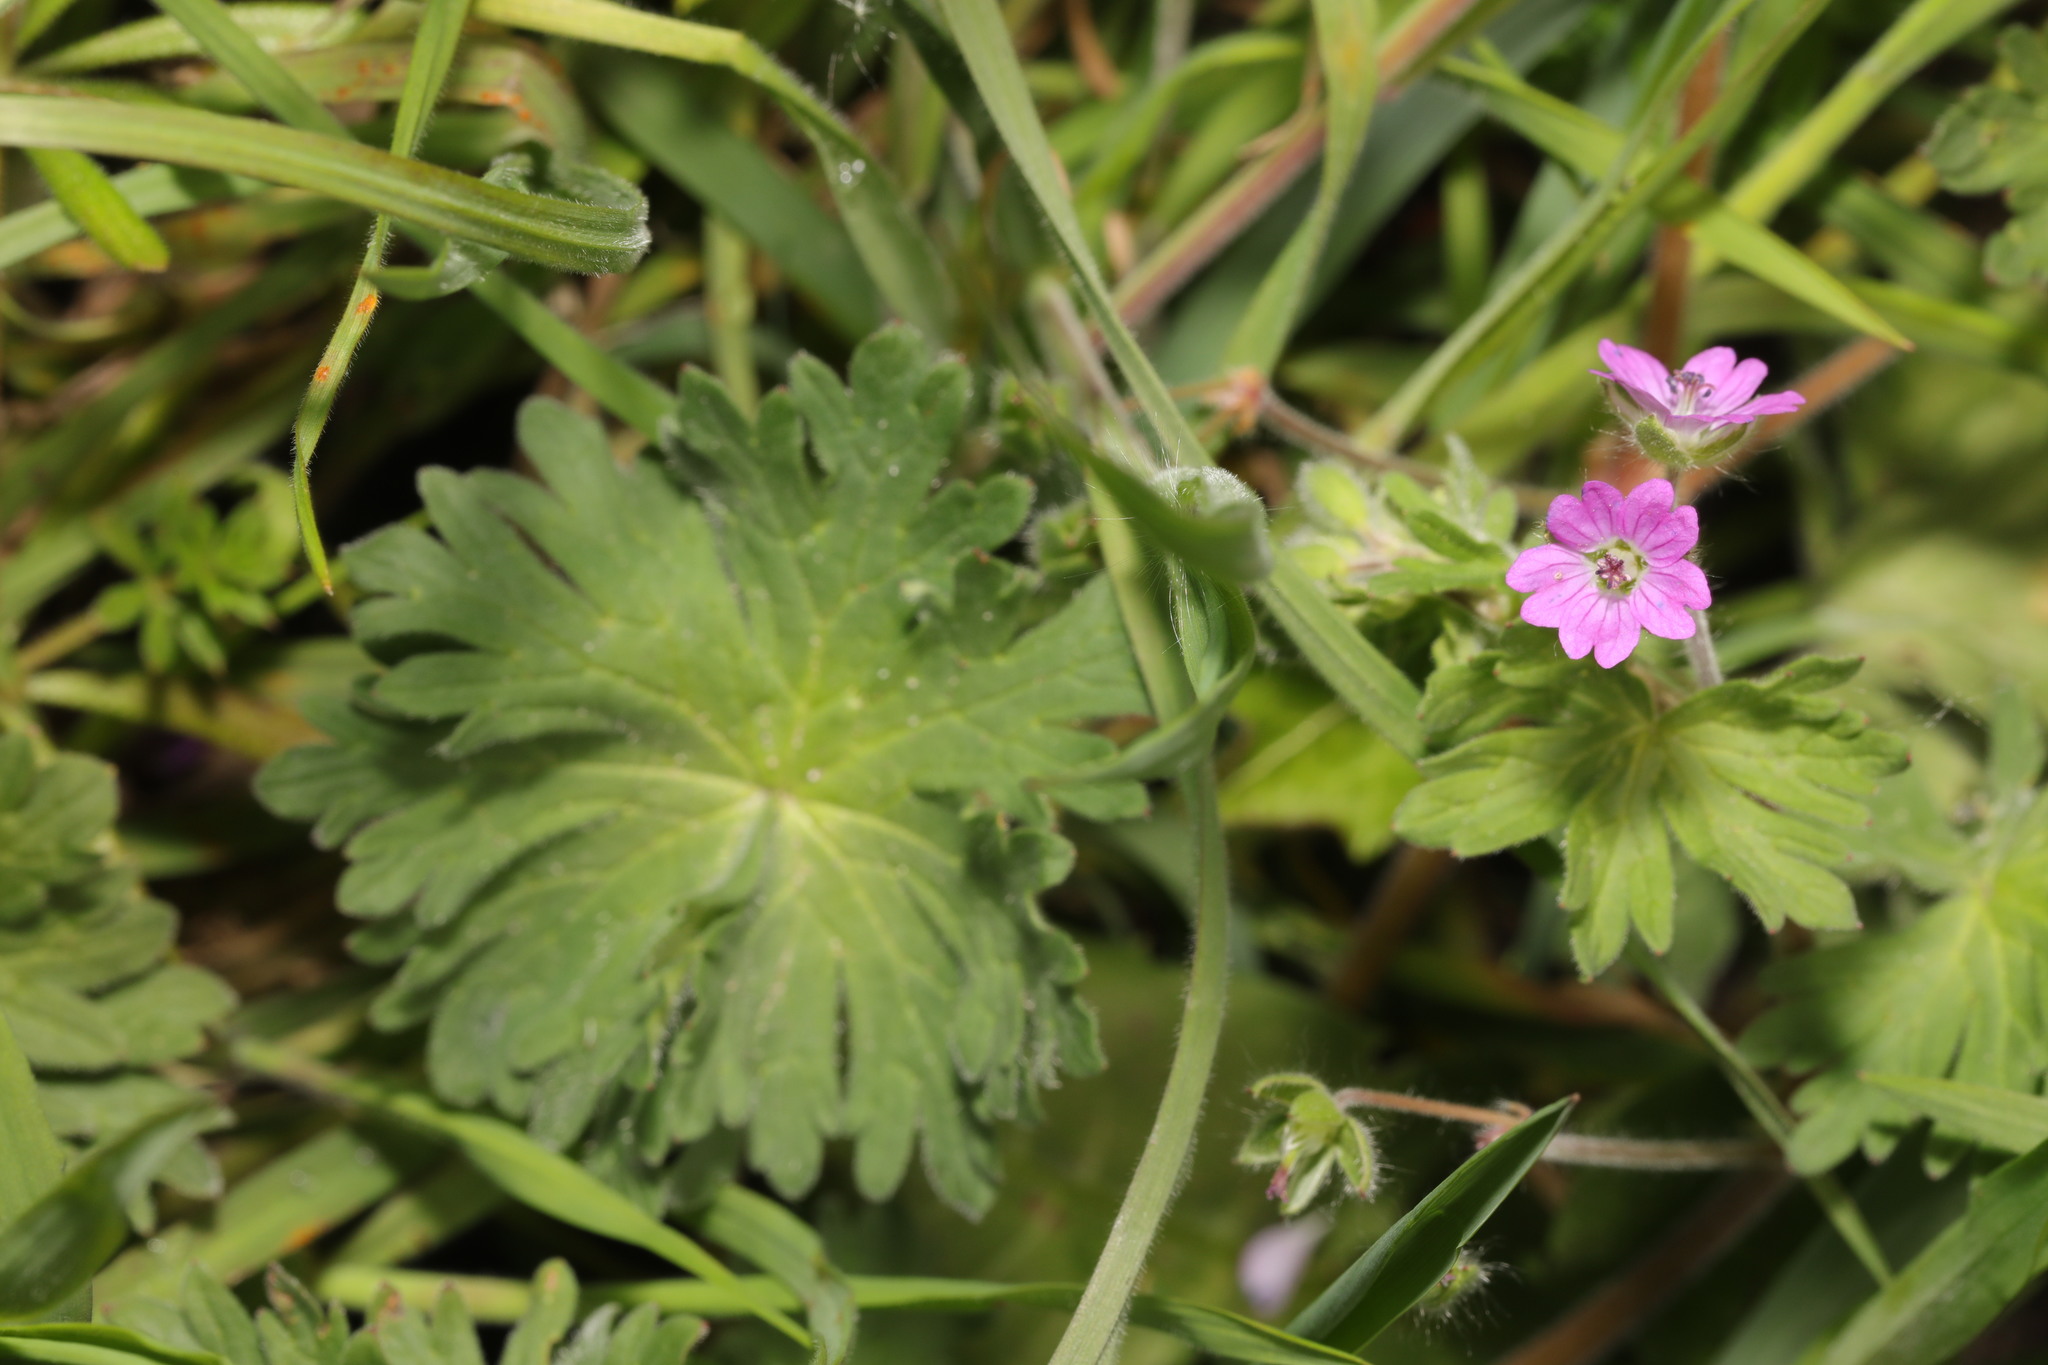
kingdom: Plantae
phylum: Tracheophyta
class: Magnoliopsida
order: Geraniales
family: Geraniaceae
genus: Geranium
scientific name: Geranium molle
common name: Dove's-foot crane's-bill
